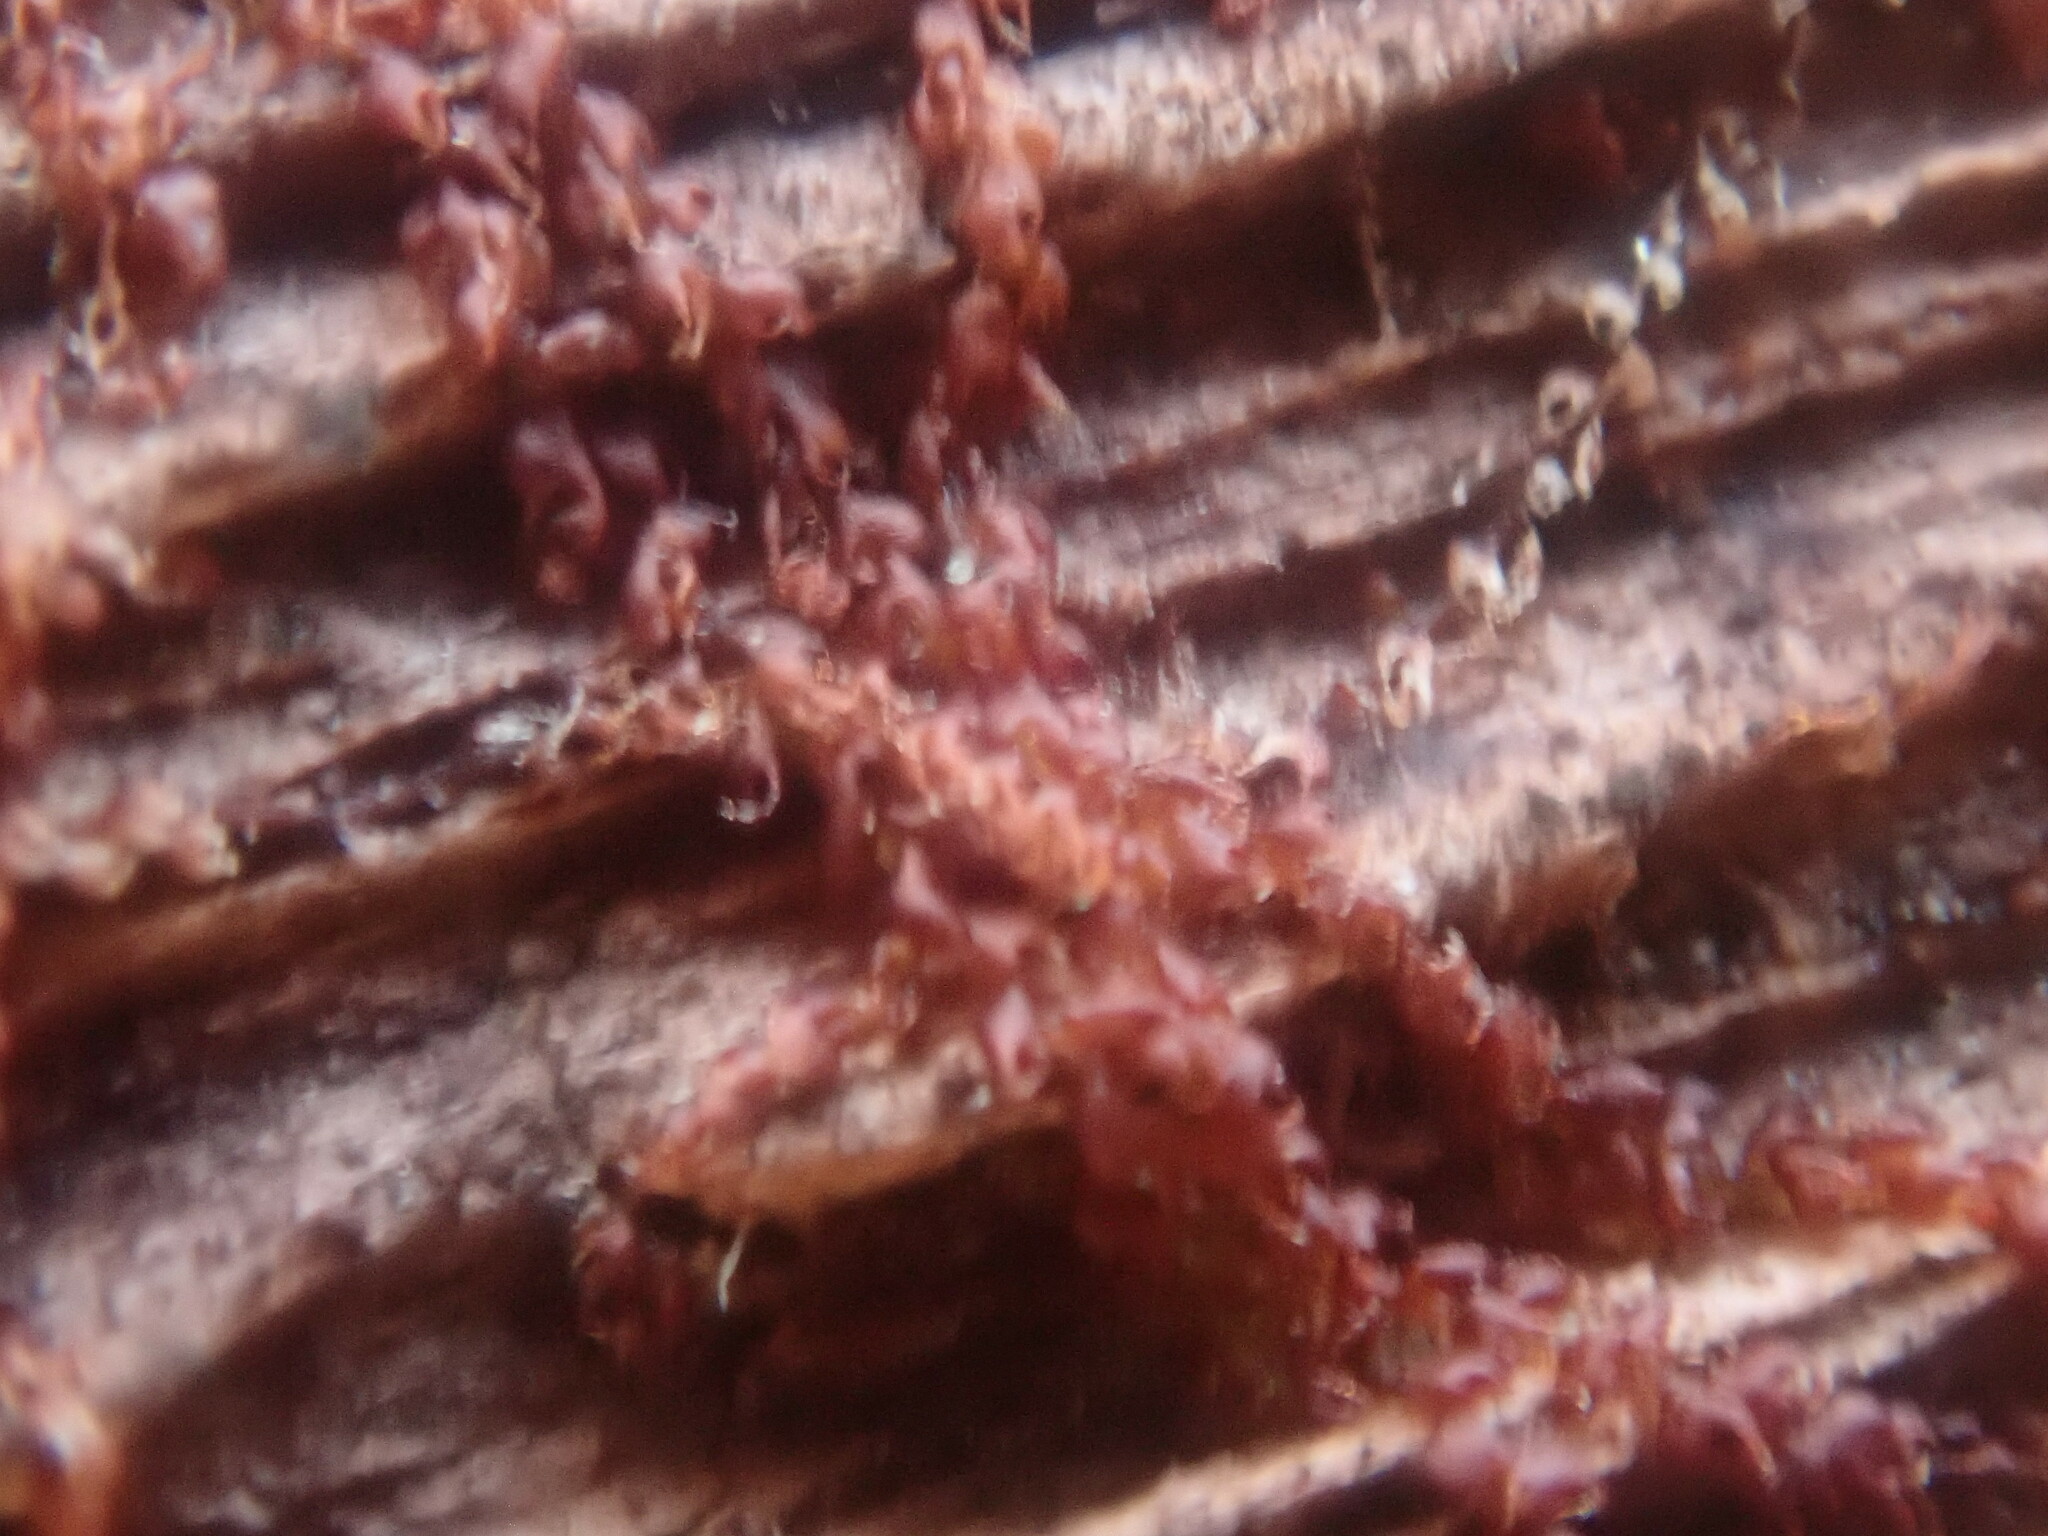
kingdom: Plantae
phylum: Marchantiophyta
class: Jungermanniopsida
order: Jungermanniales
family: Cephaloziaceae
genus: Nowellia
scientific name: Nowellia curvifolia
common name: Wood rustwort
